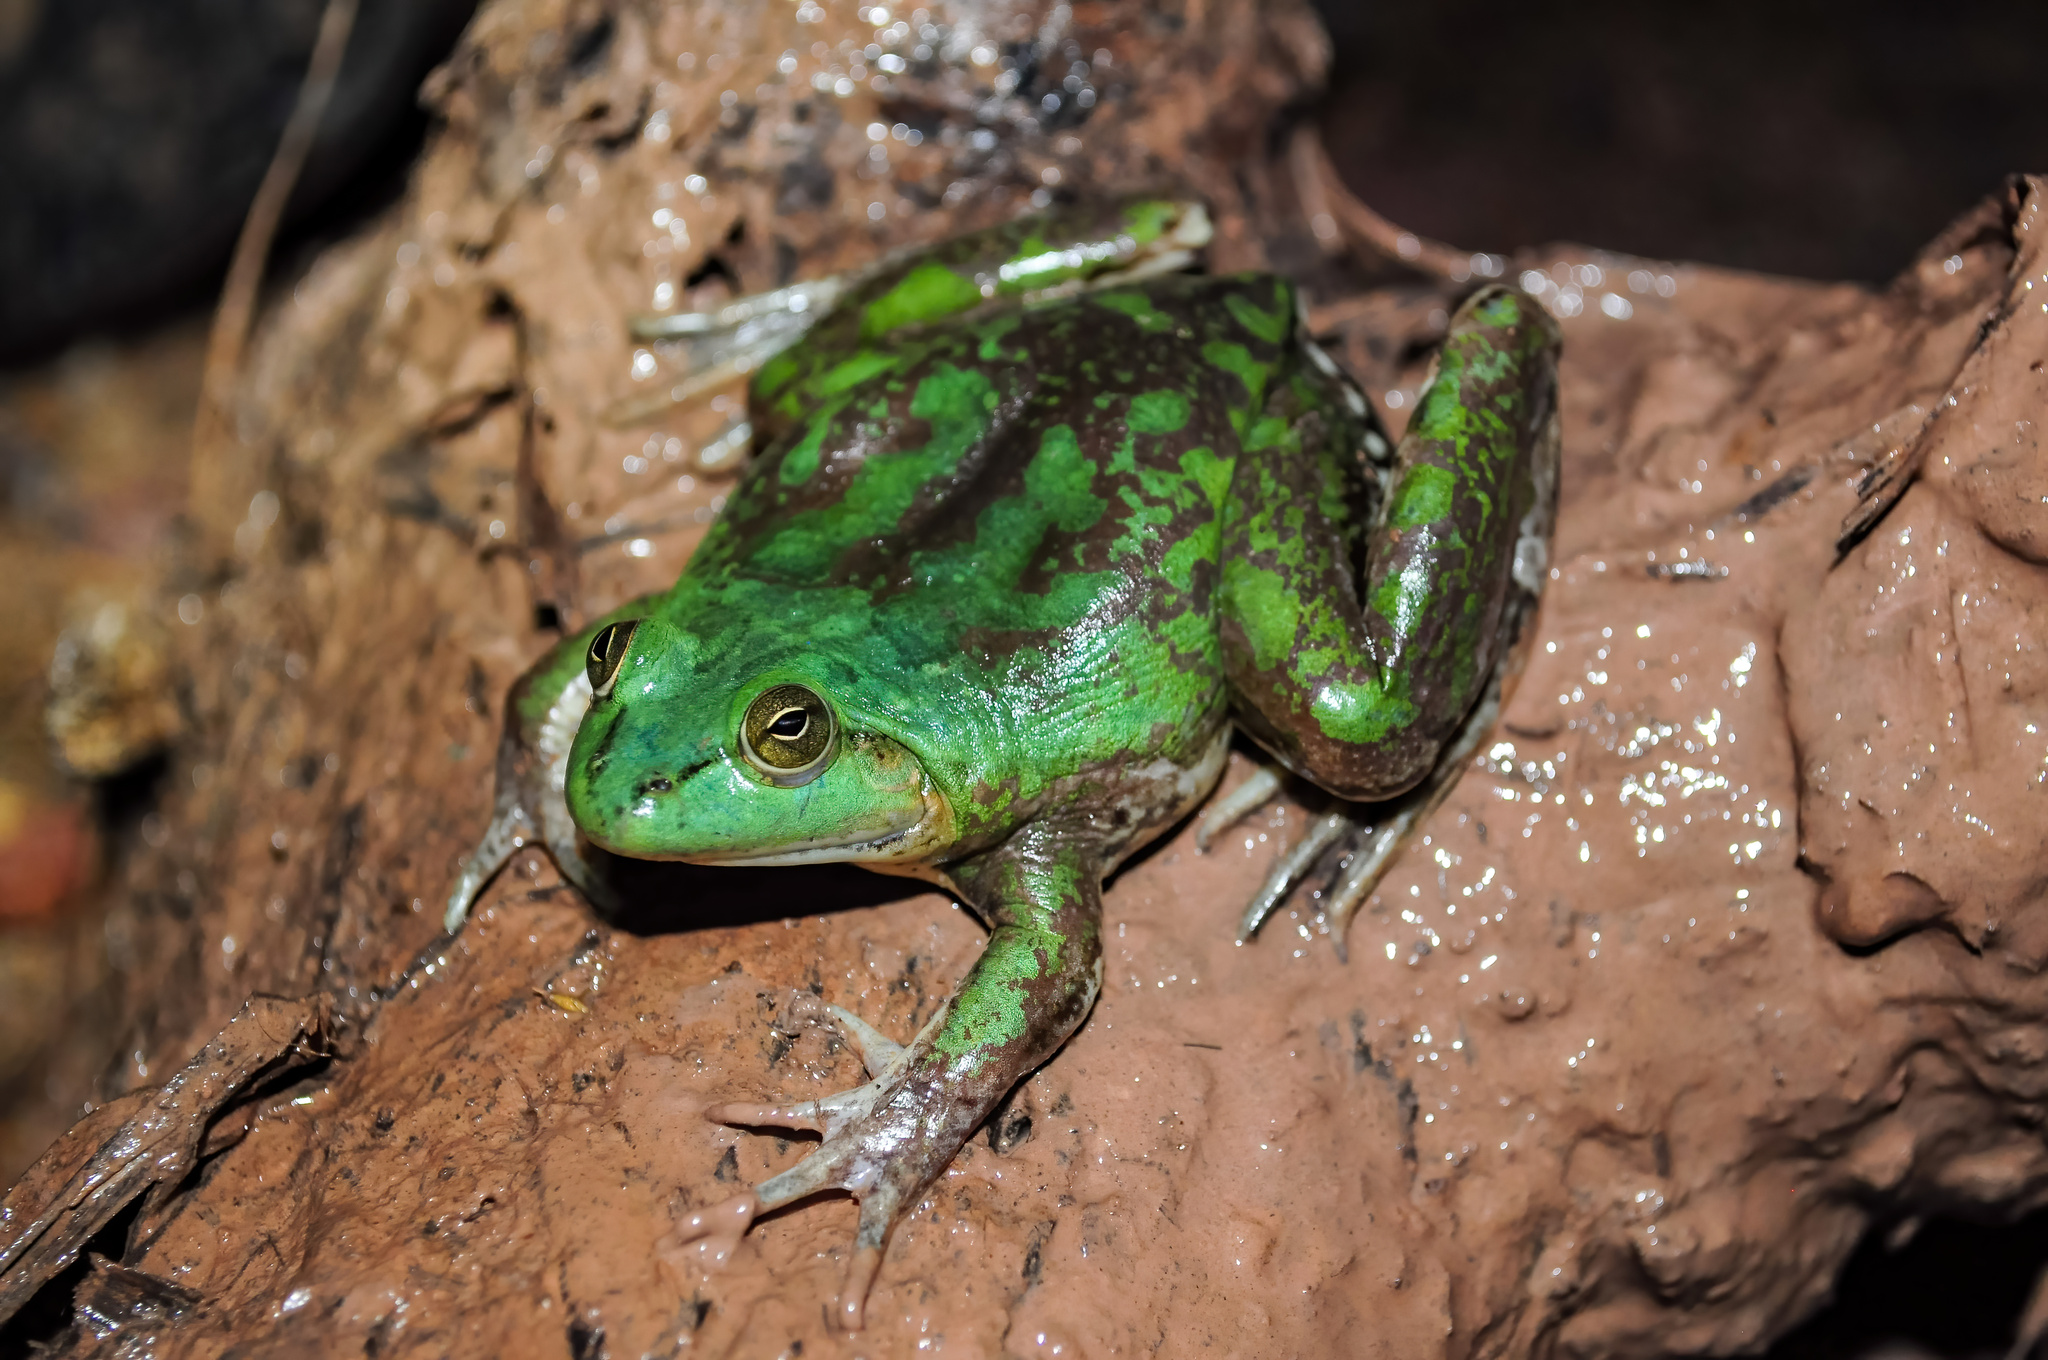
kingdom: Animalia
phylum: Chordata
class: Amphibia
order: Anura
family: Hylidae
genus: Pseudis
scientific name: Pseudis platensis
